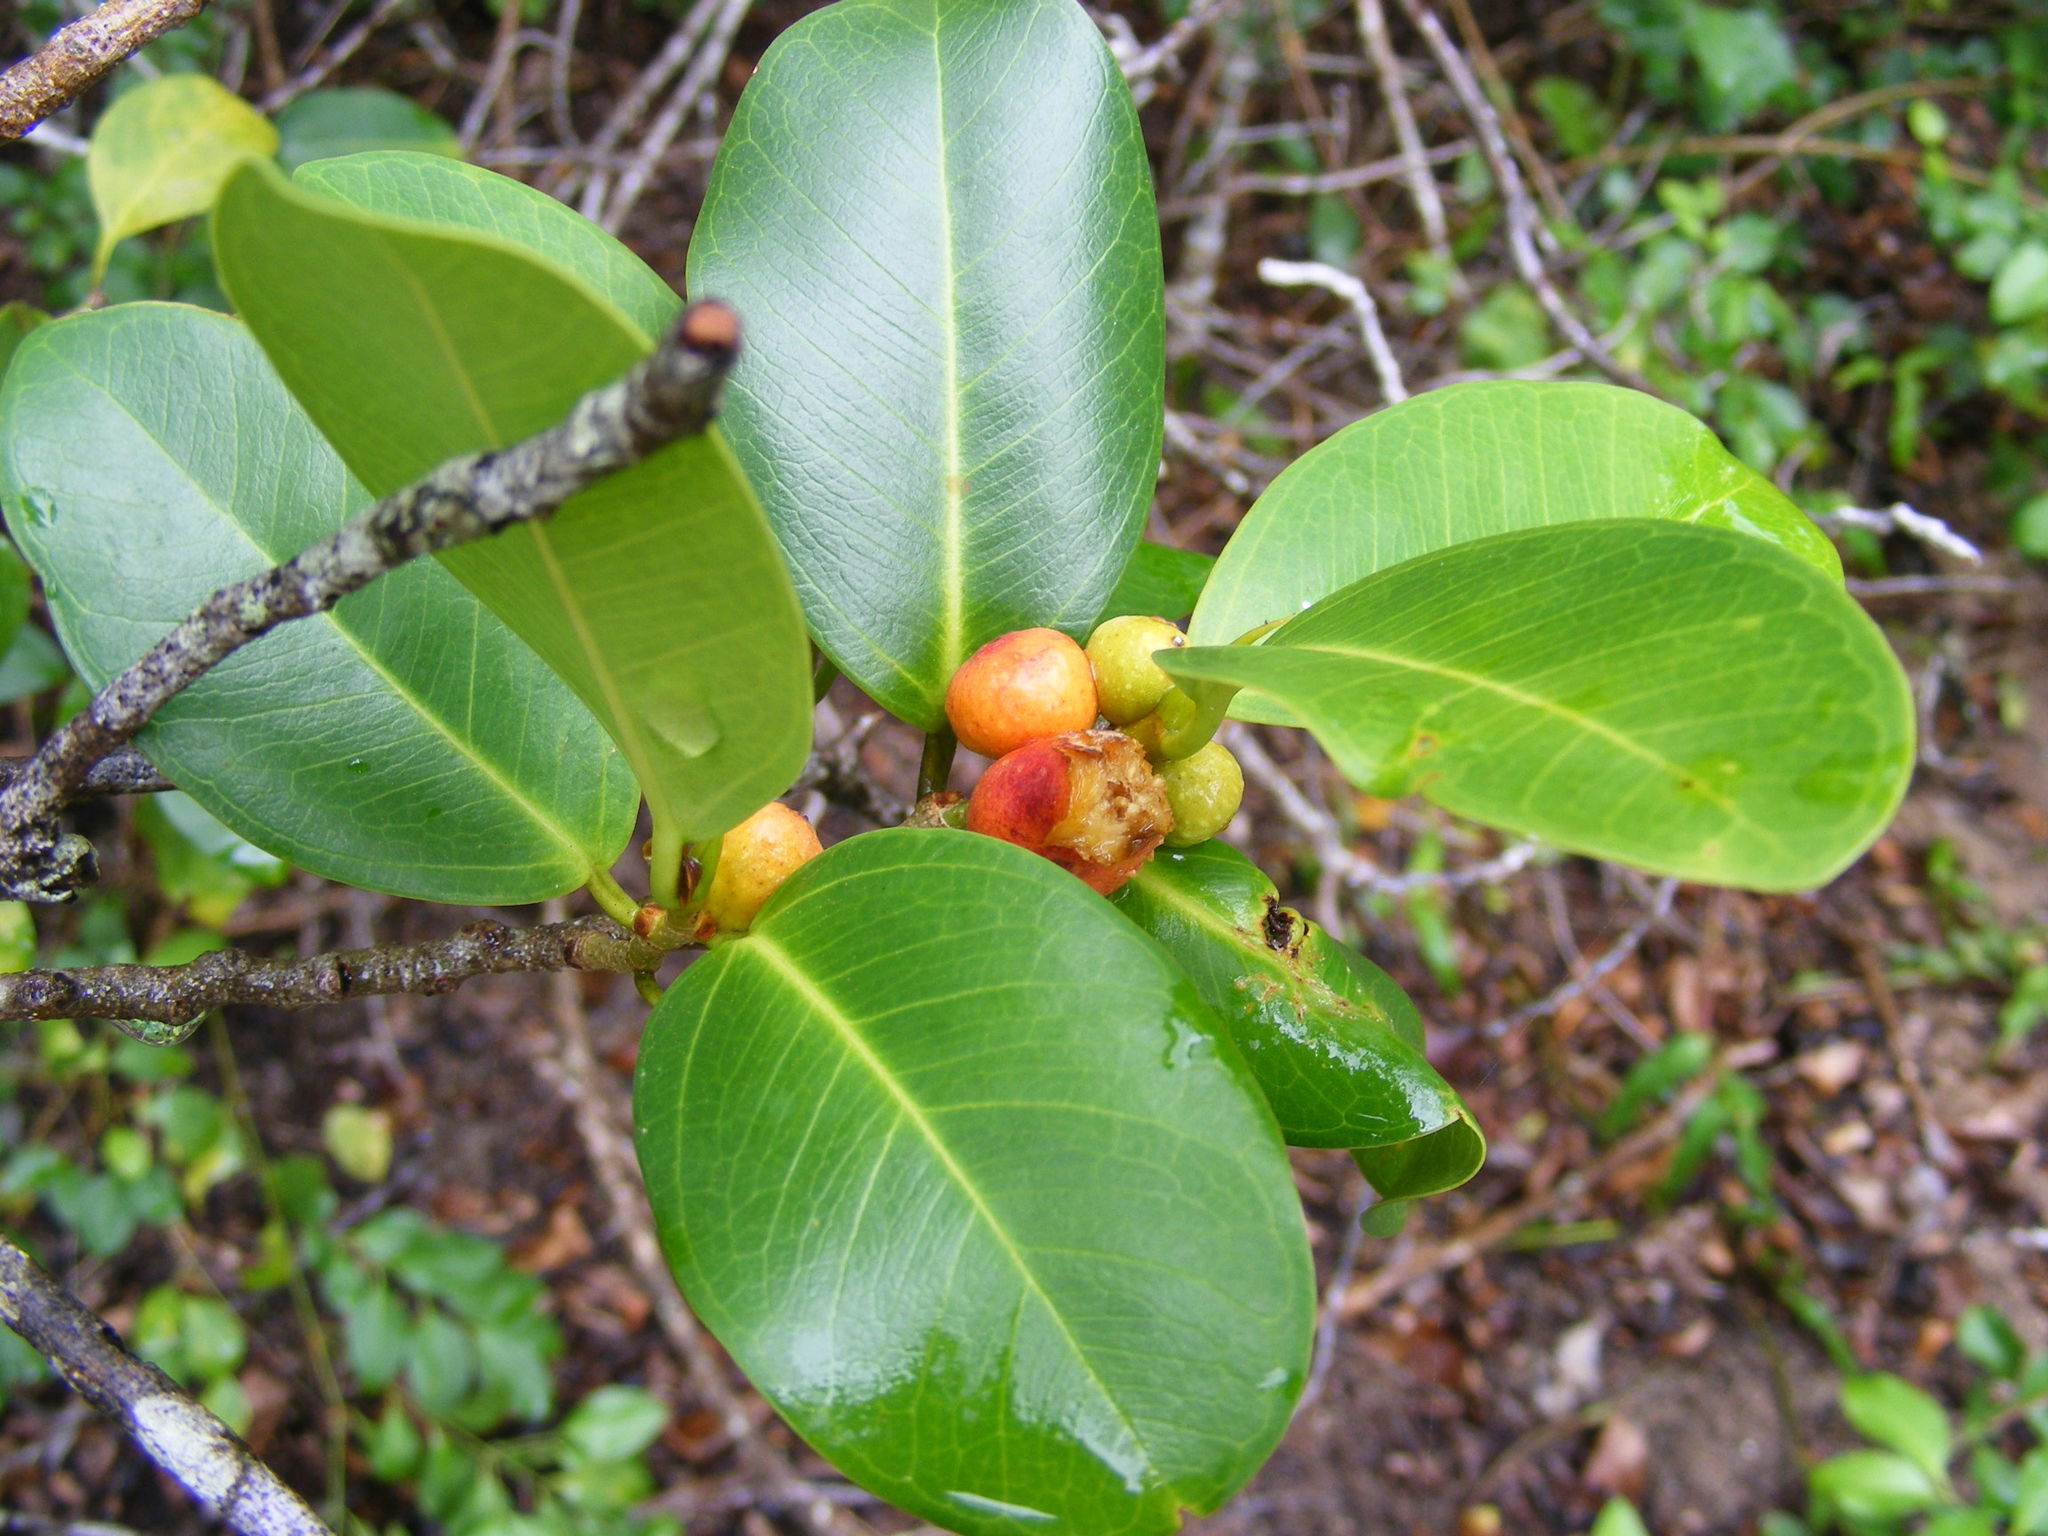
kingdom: Plantae
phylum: Tracheophyta
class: Magnoliopsida
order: Rosales
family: Moraceae
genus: Ficus
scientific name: Ficus microcarpa
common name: Chinese banyan
